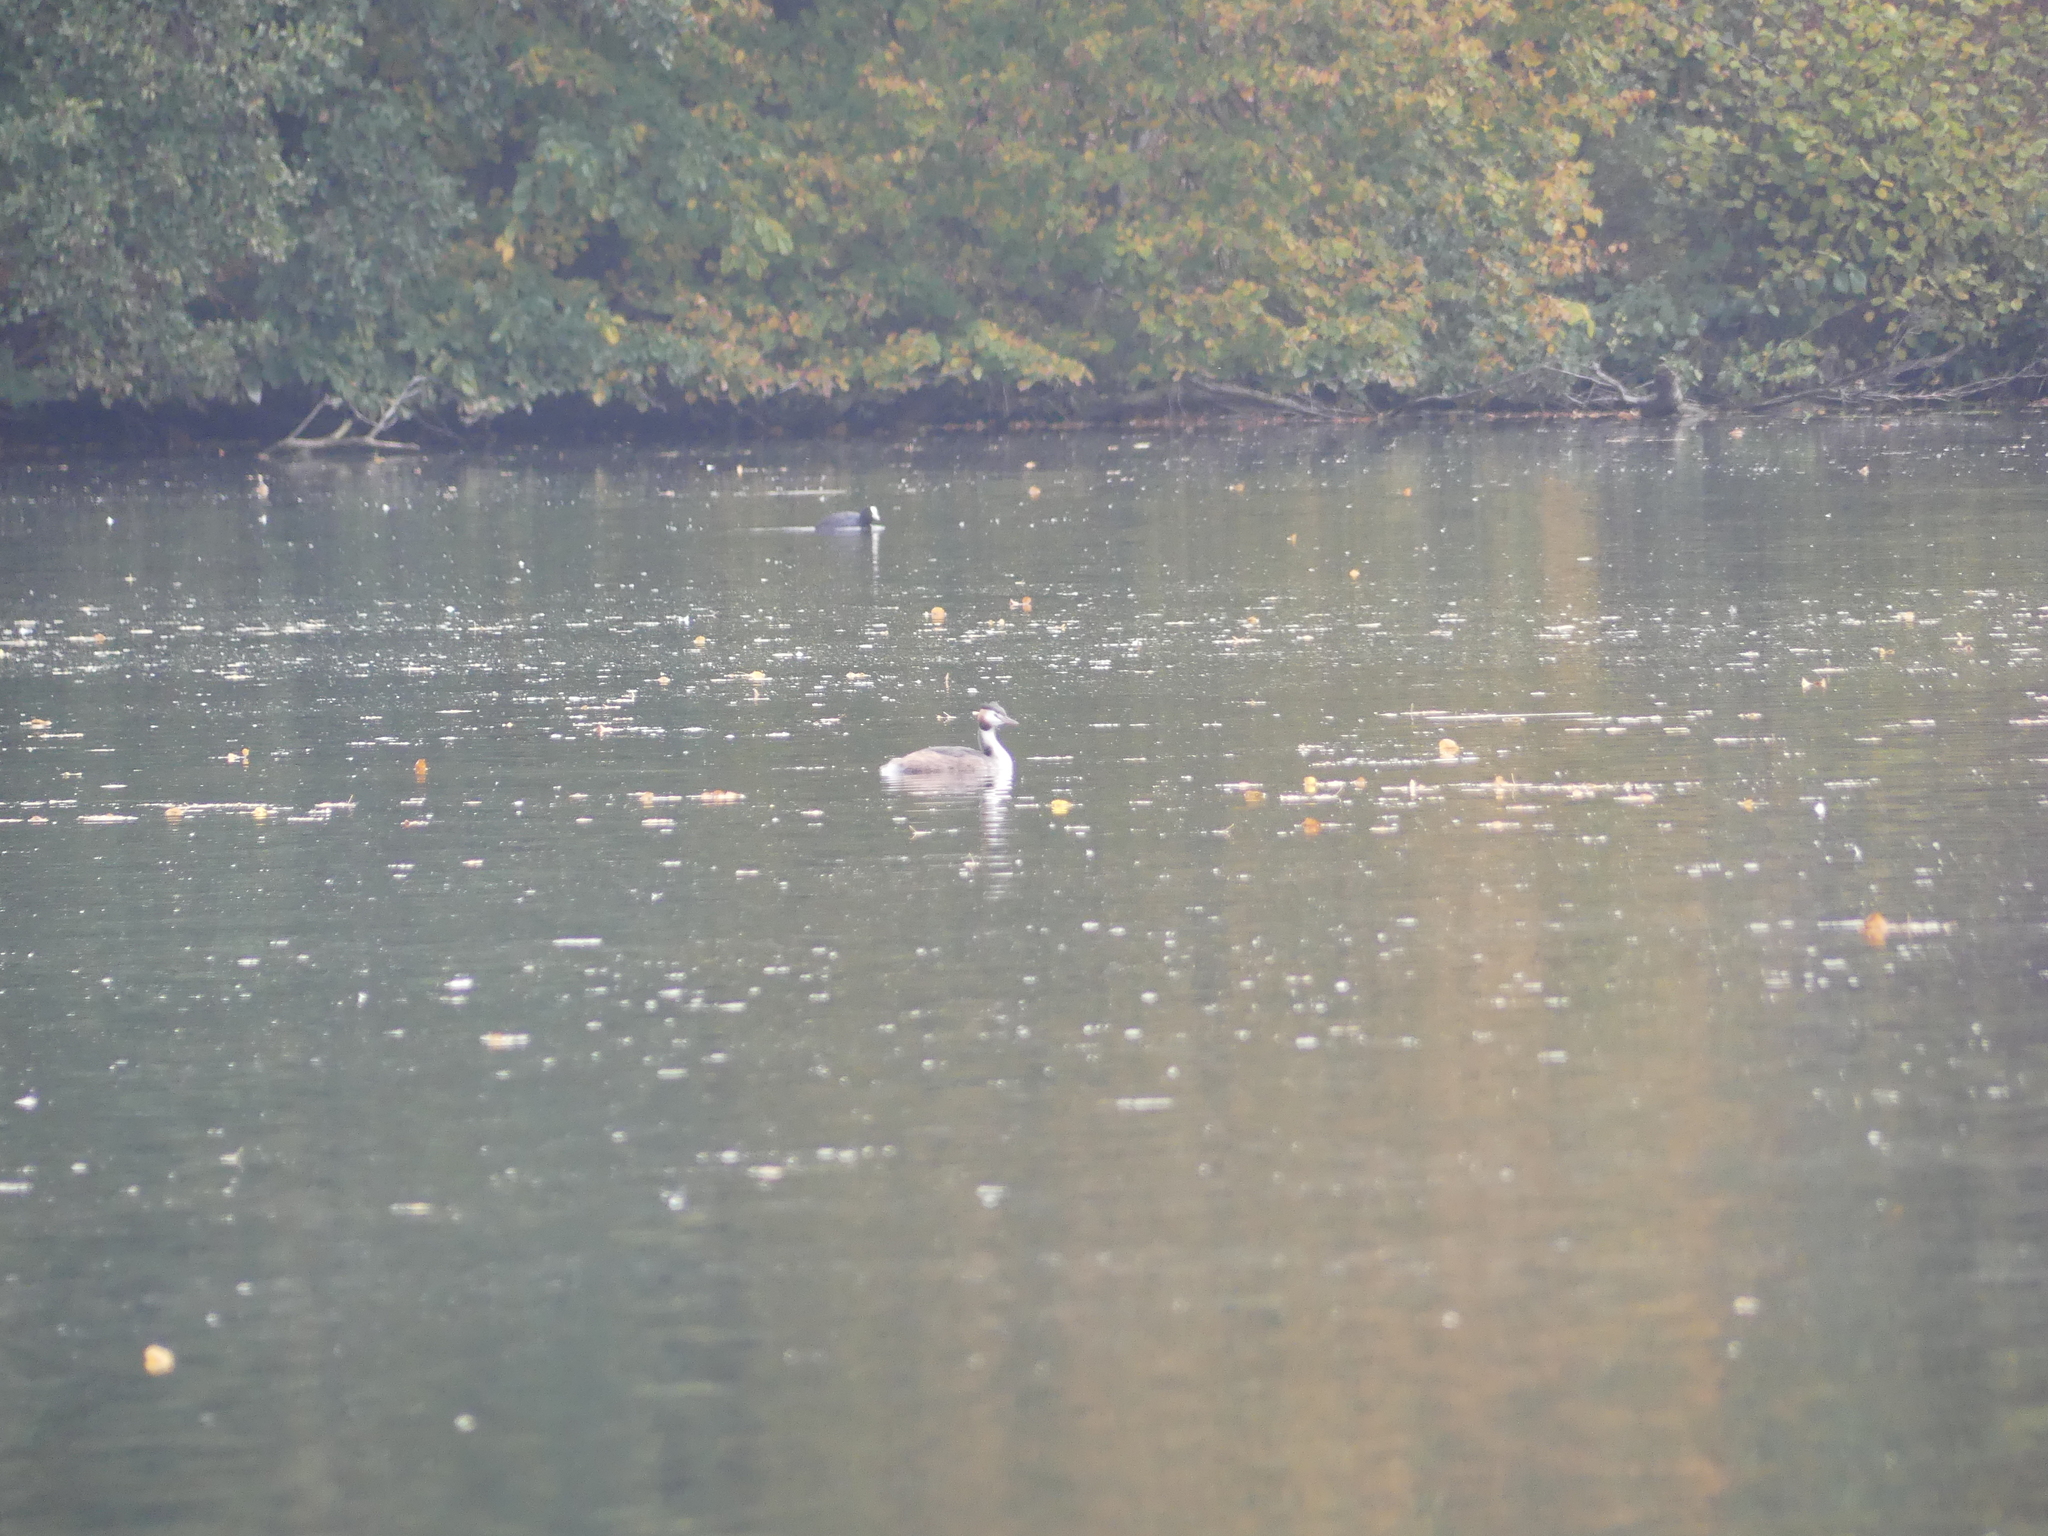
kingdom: Animalia
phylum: Chordata
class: Aves
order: Podicipediformes
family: Podicipedidae
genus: Podiceps
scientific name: Podiceps cristatus
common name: Great crested grebe
